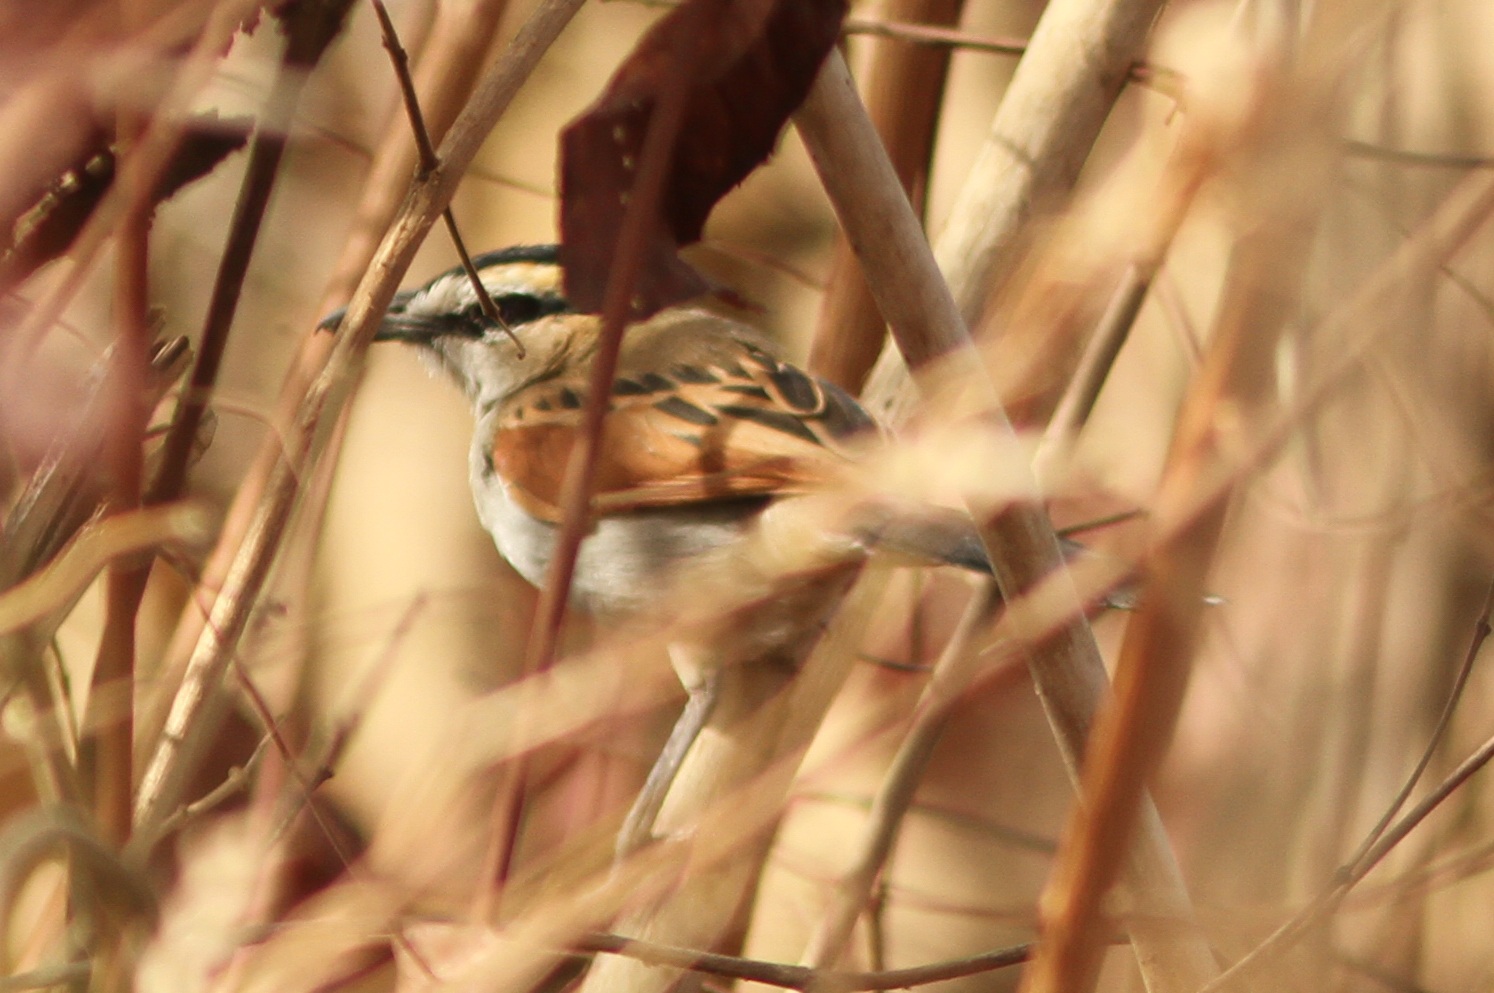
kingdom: Animalia
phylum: Chordata
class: Aves
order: Passeriformes
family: Malaconotidae
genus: Tchagra
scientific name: Tchagra senegalus
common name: Black-crowned tchagra
